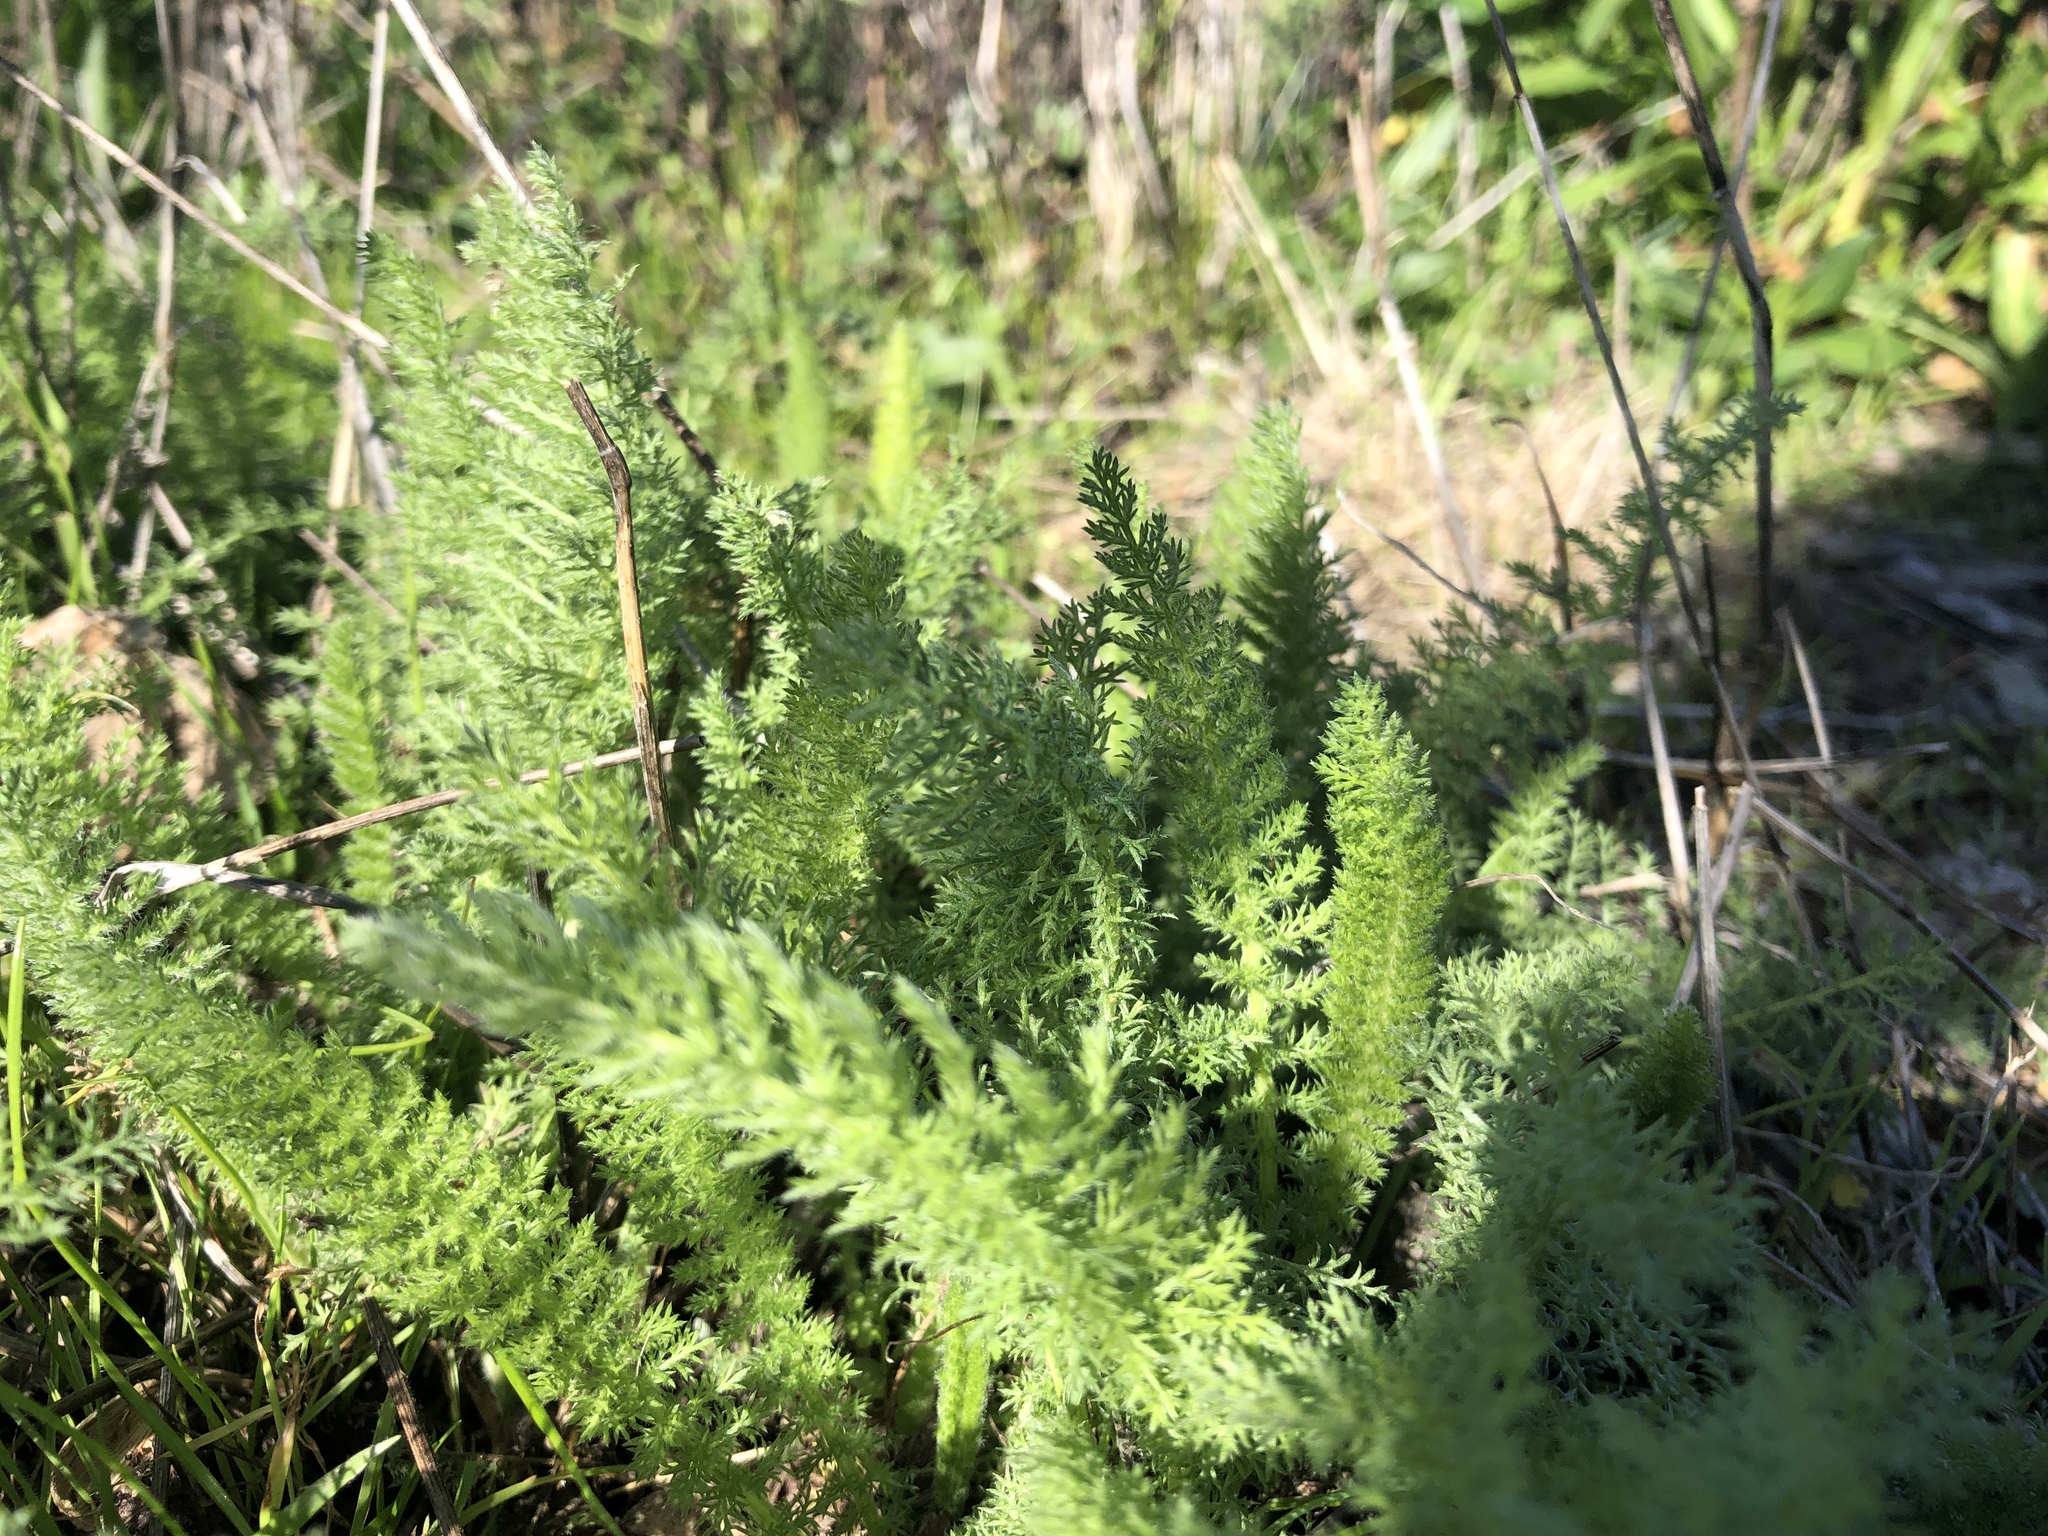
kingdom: Plantae
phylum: Tracheophyta
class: Magnoliopsida
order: Asterales
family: Asteraceae
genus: Achillea
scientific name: Achillea millefolium
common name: Yarrow
